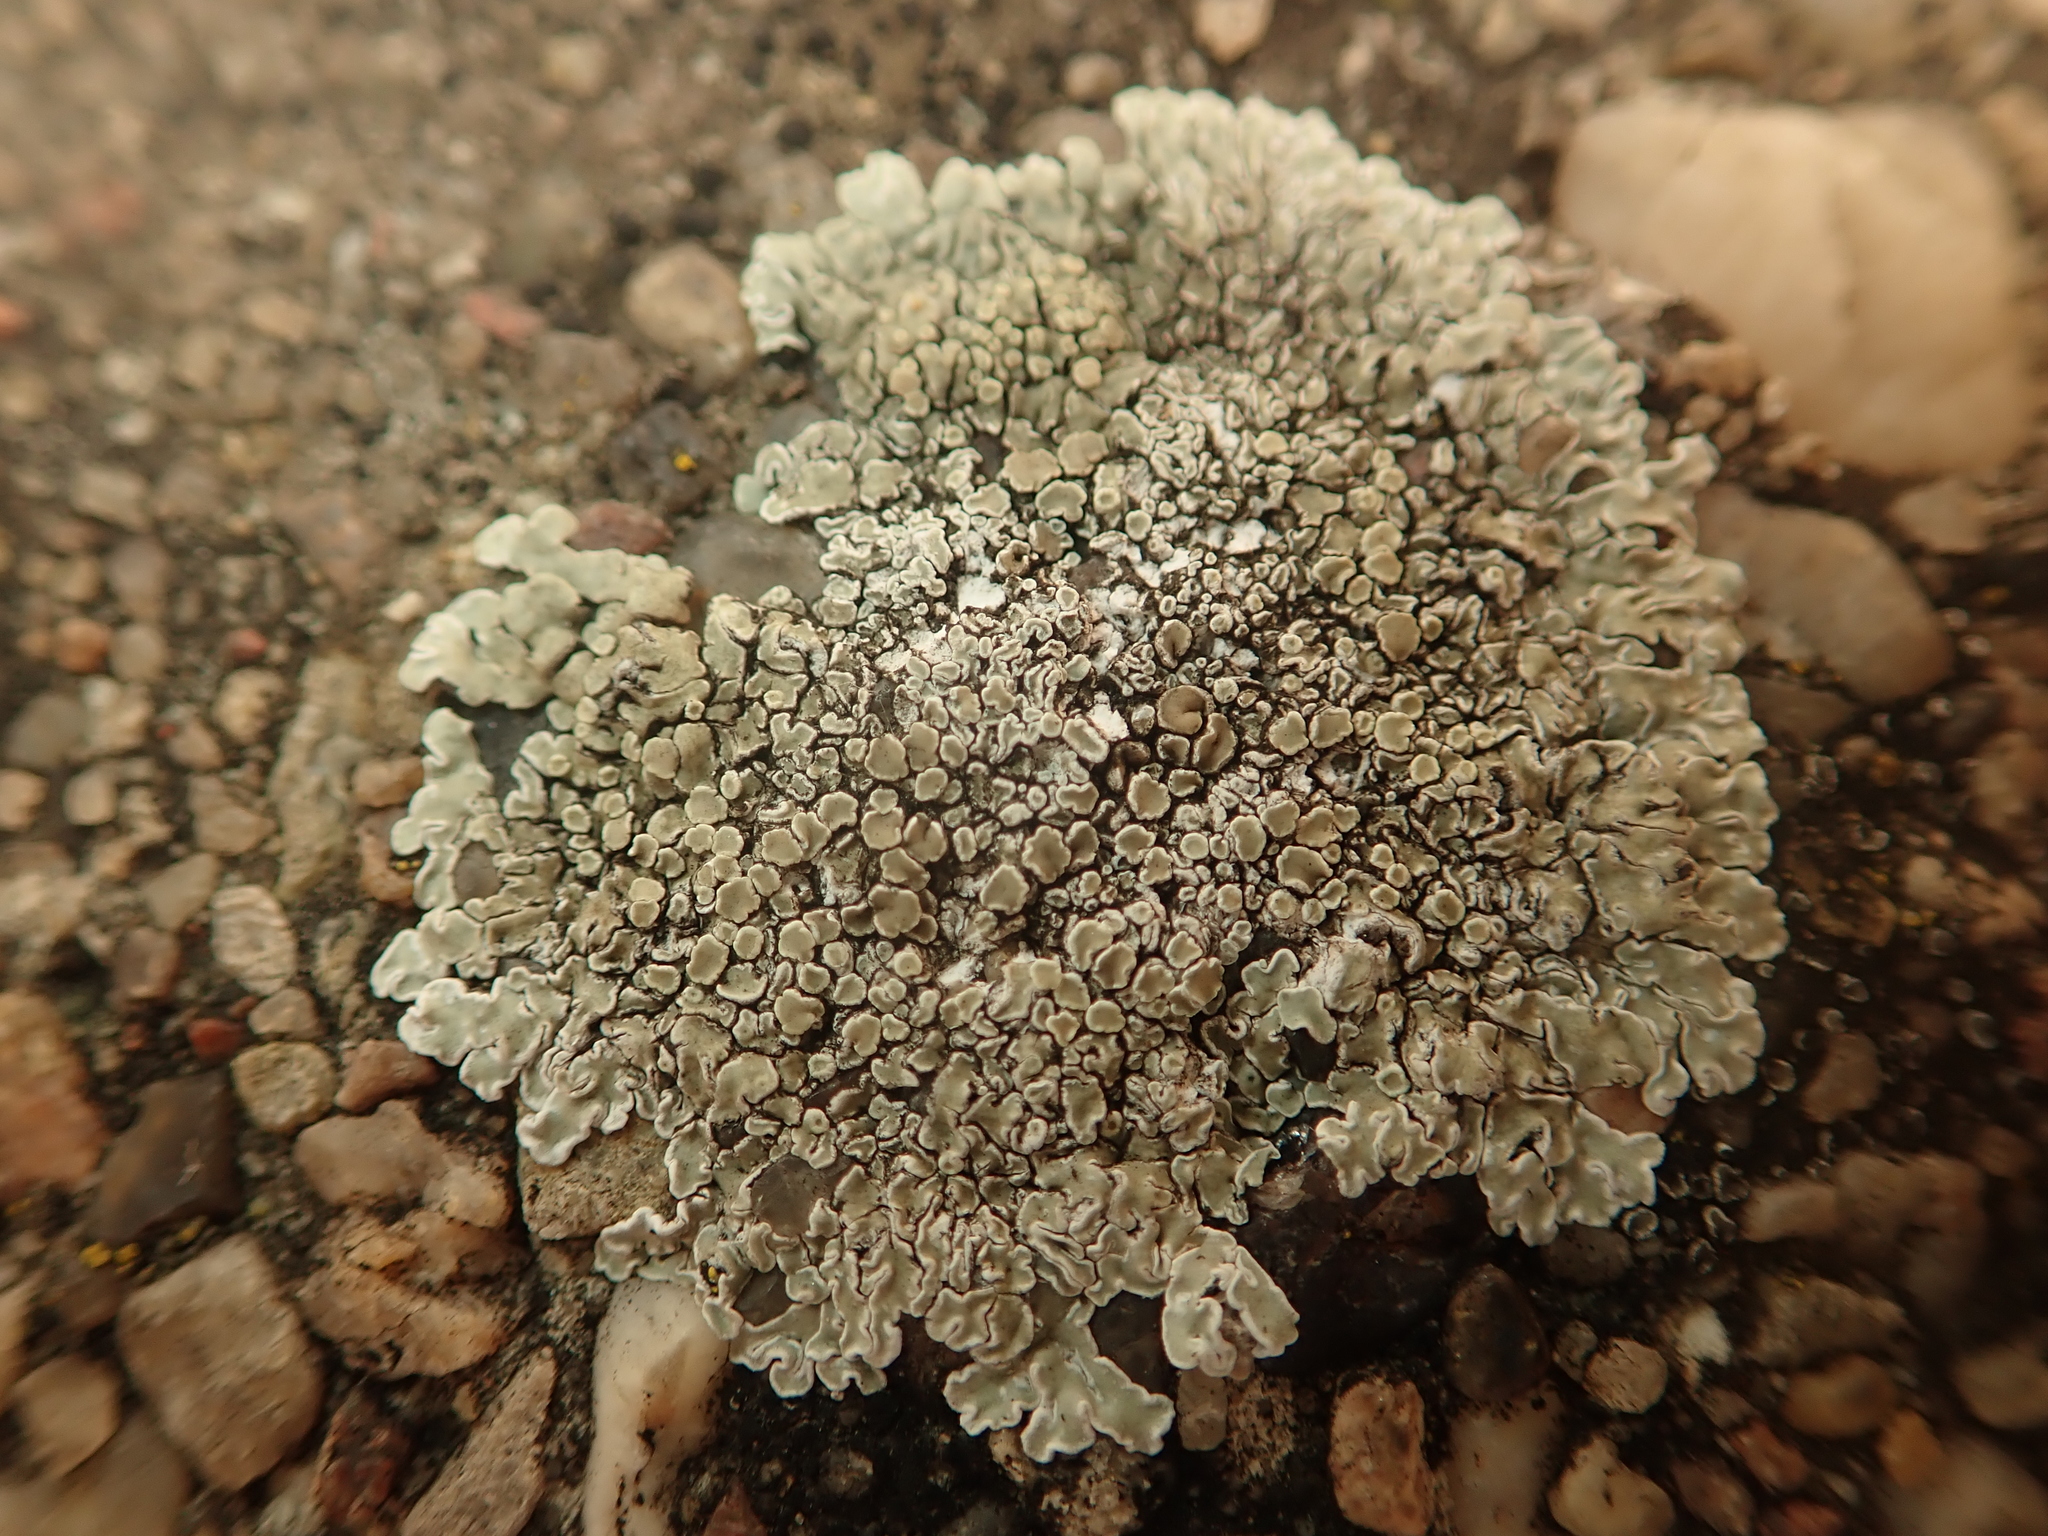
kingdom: Fungi
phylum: Ascomycota
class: Lecanoromycetes
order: Lecanorales
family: Lecanoraceae
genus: Protoparmeliopsis
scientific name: Protoparmeliopsis muralis
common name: Stonewall rim lichen
